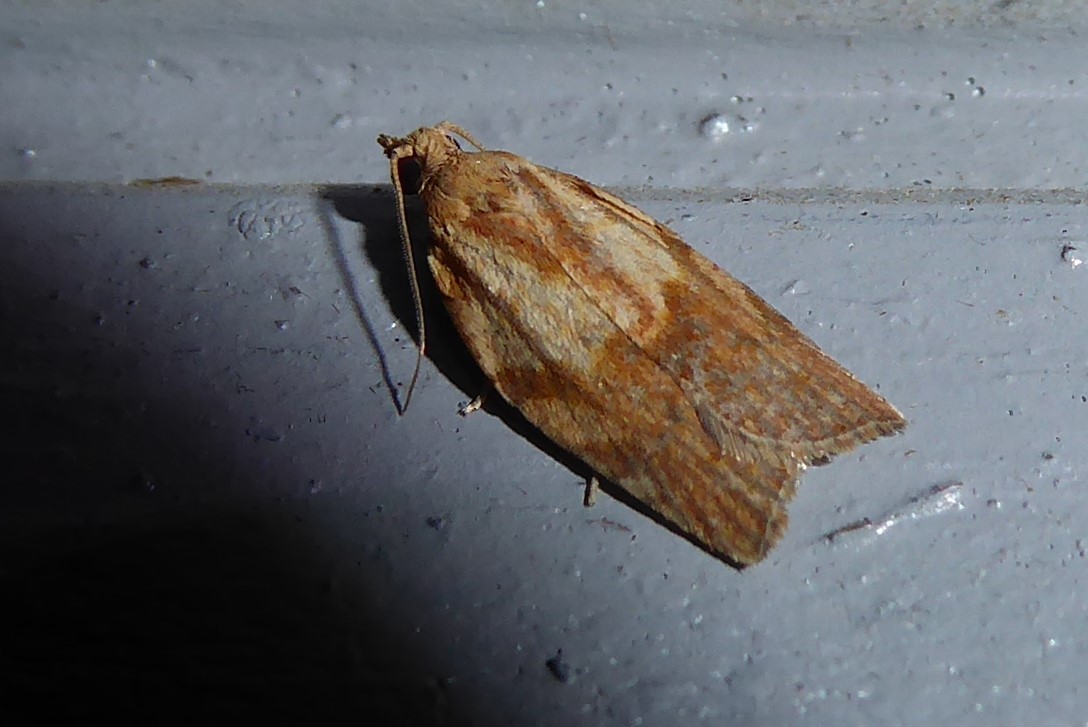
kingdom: Animalia
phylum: Arthropoda
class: Insecta
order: Lepidoptera
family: Tortricidae
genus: Epiphyas
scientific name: Epiphyas postvittana
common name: Light brown apple moth
